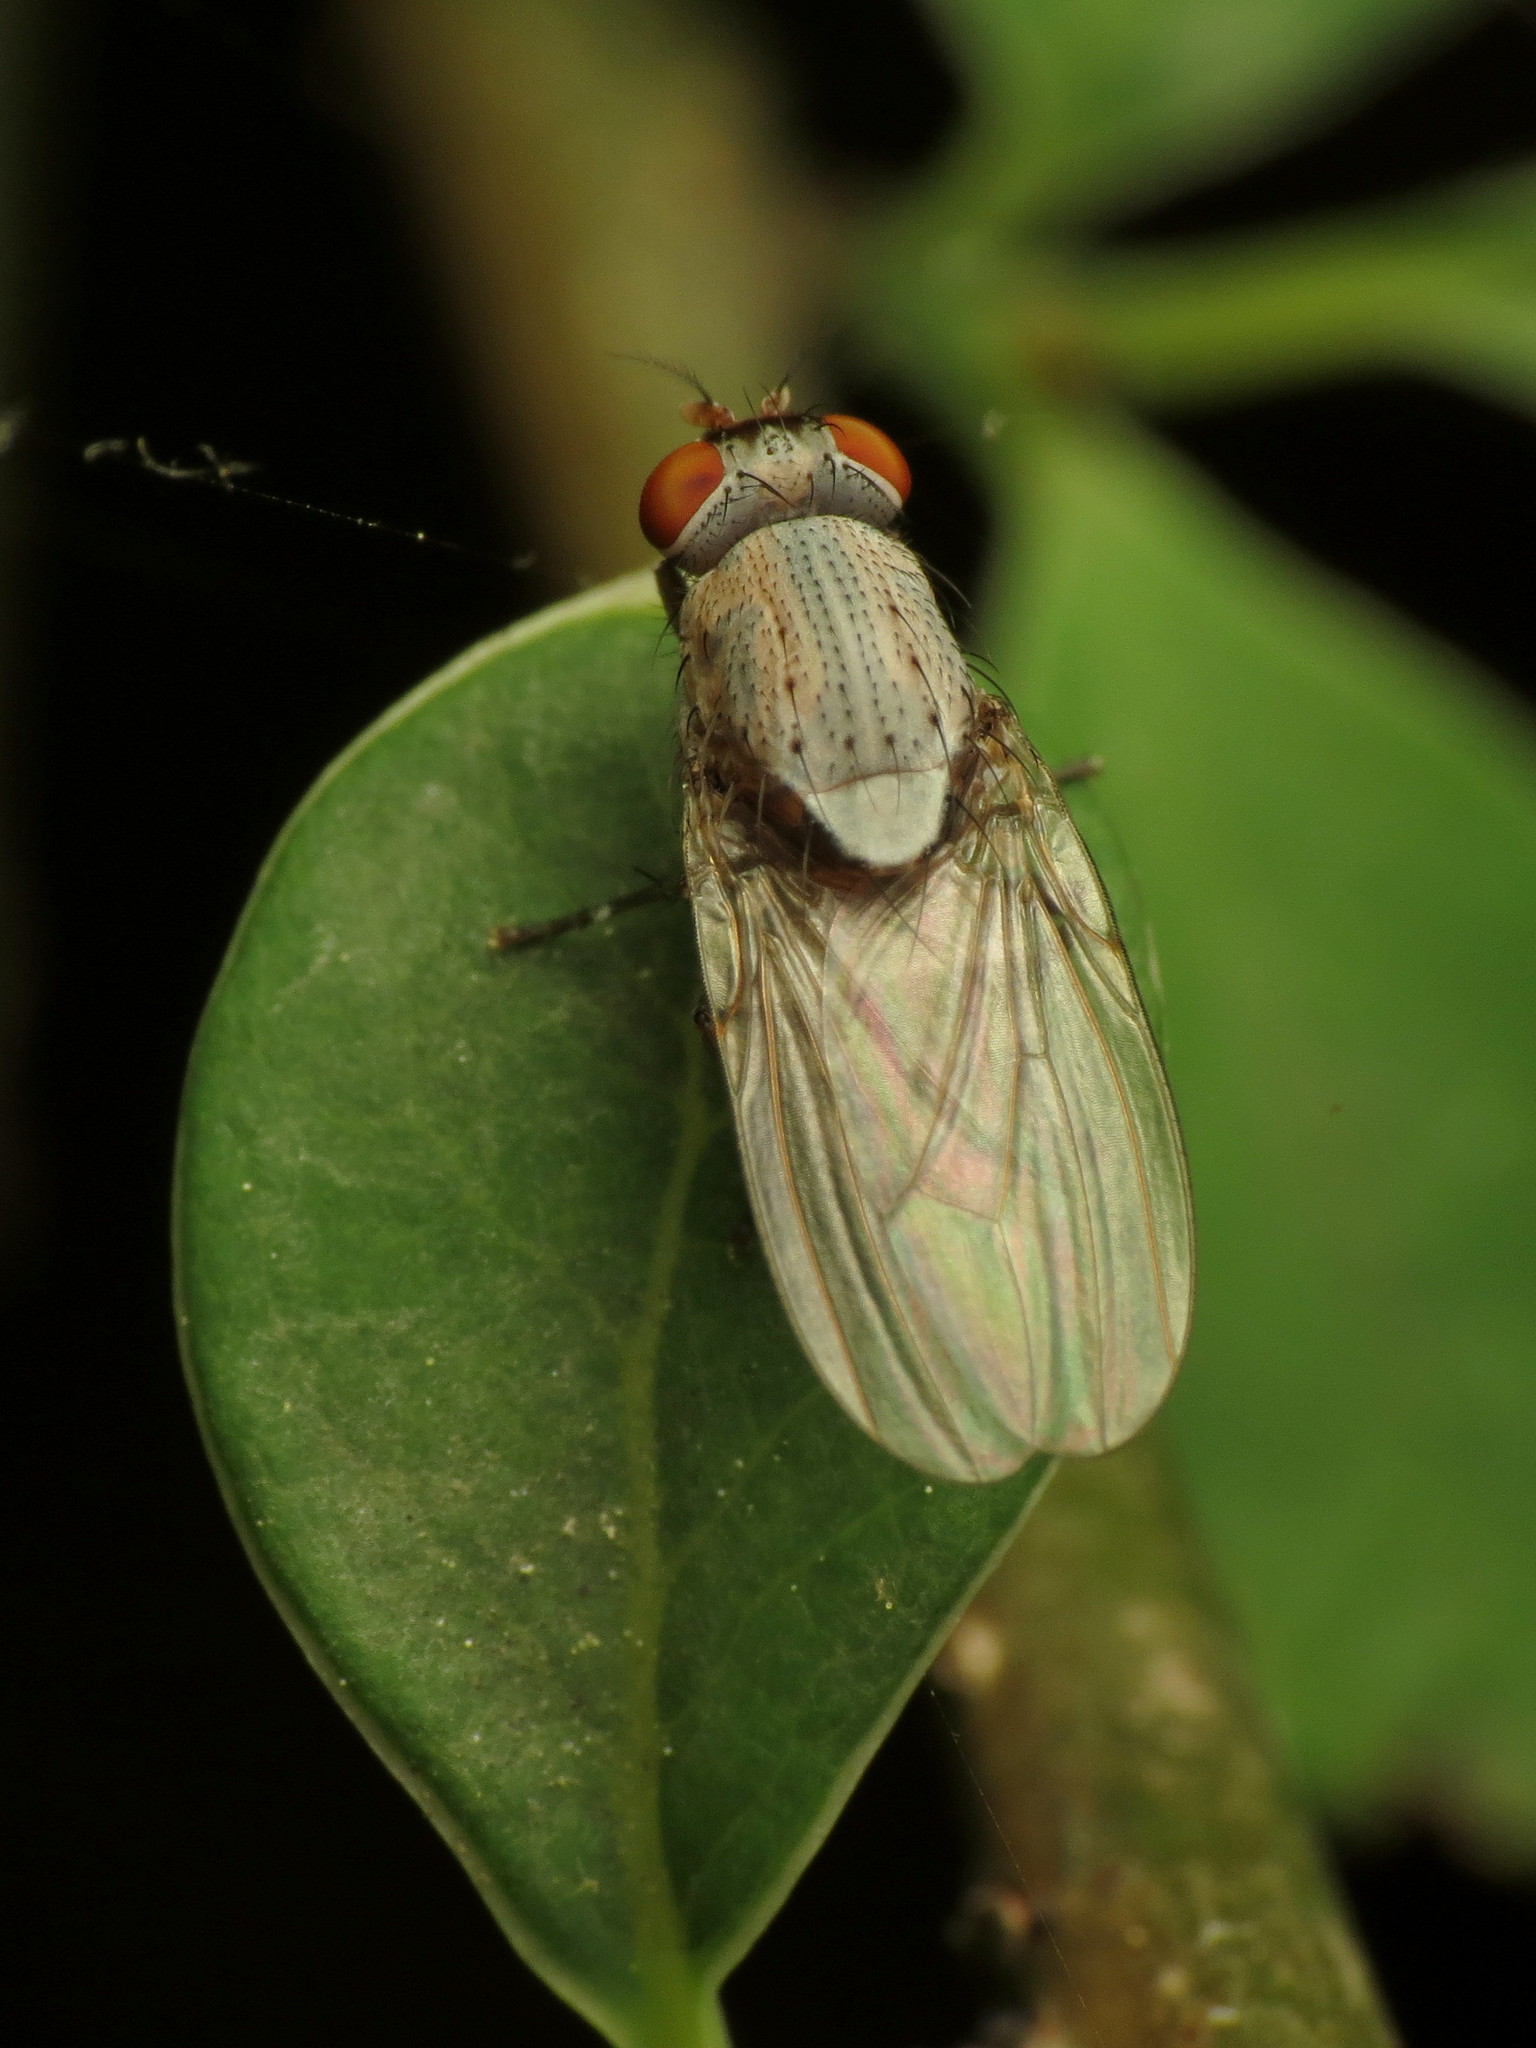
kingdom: Animalia
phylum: Arthropoda
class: Insecta
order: Diptera
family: Lauxaniidae
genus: Minettia
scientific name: Minettia magna
